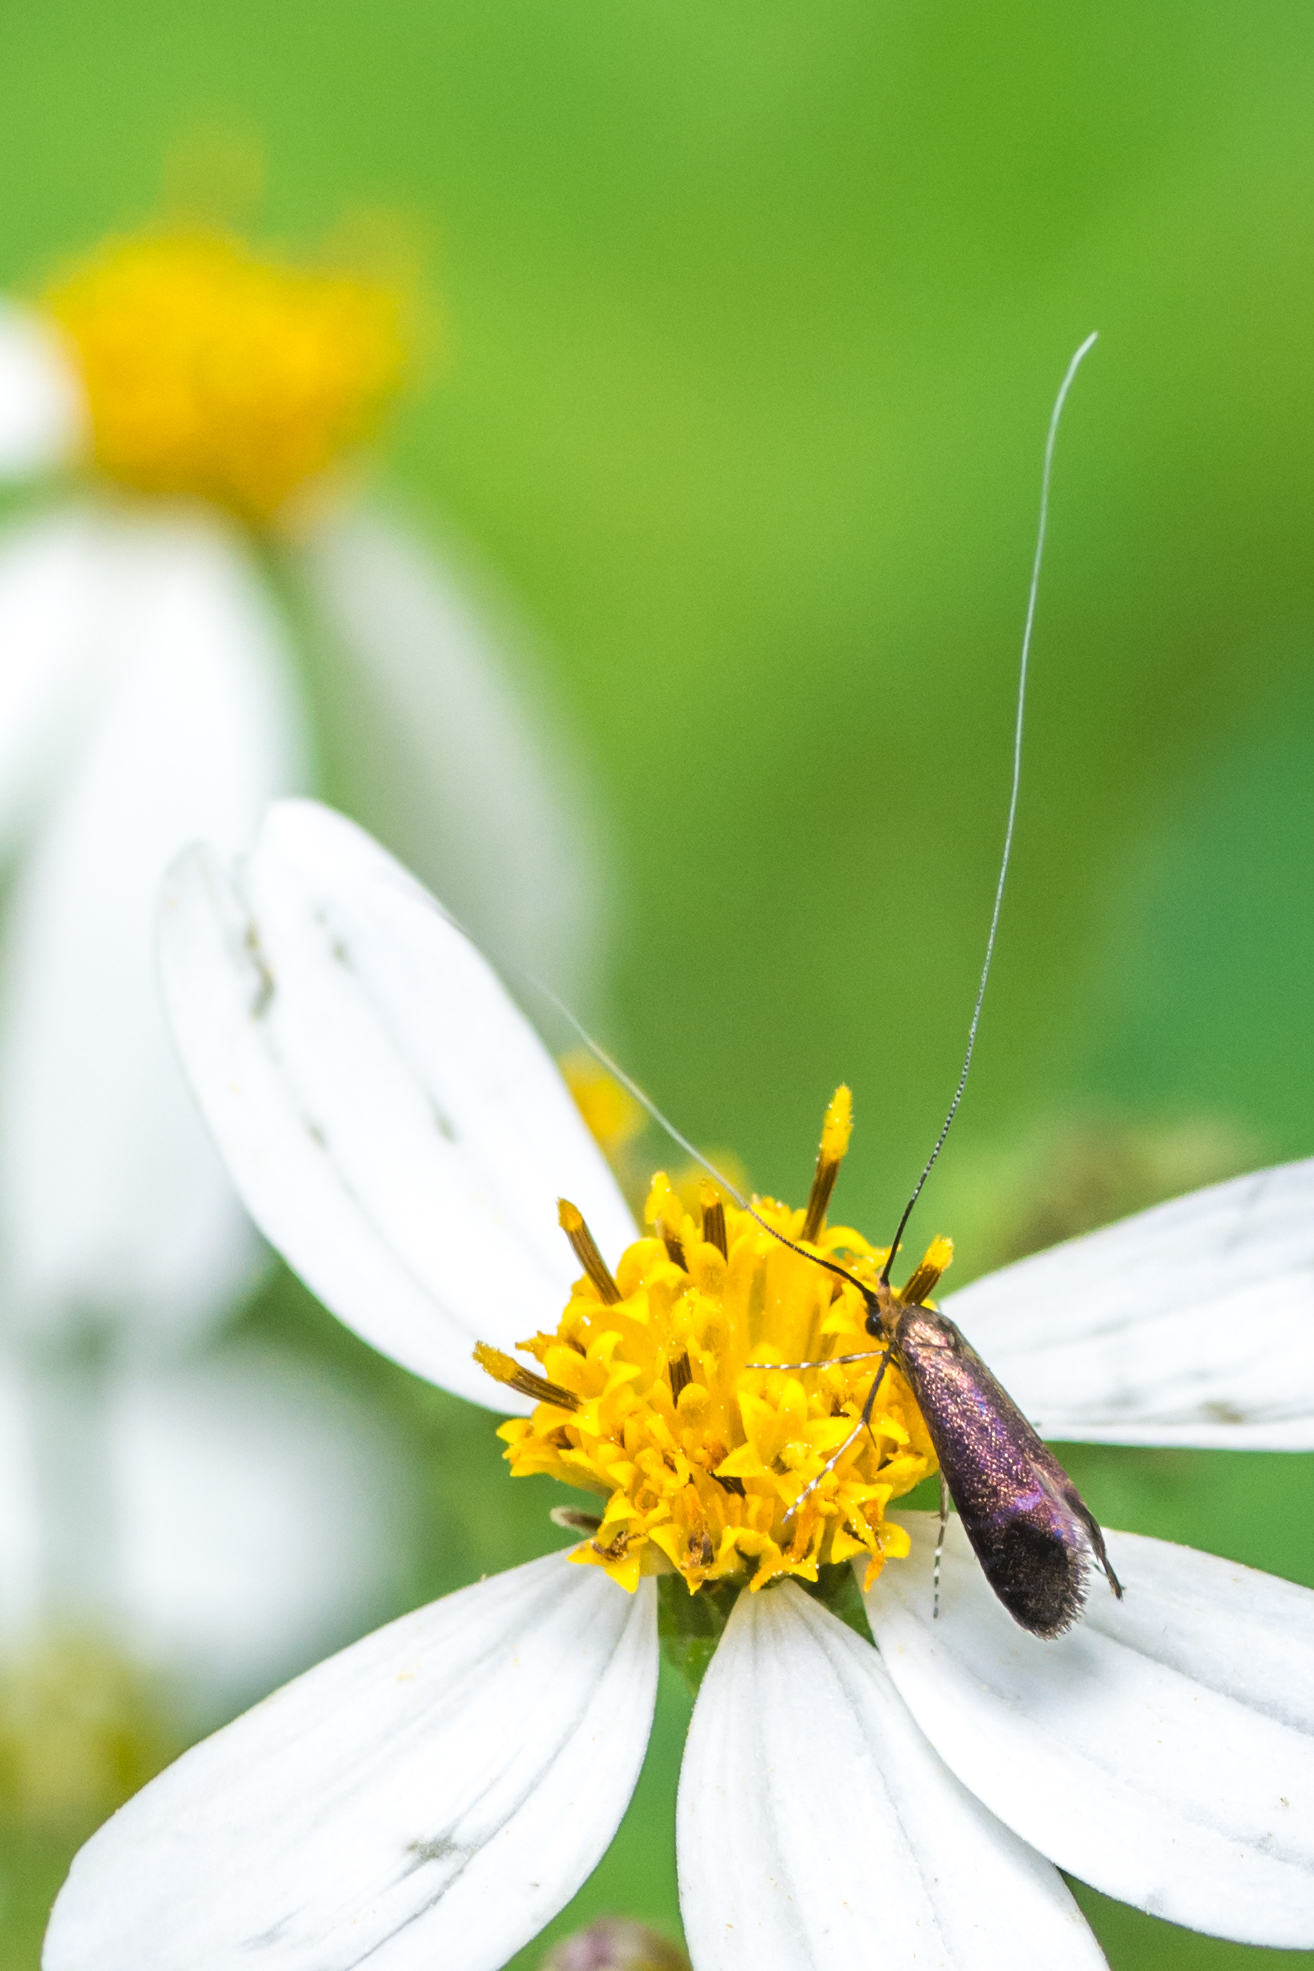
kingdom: Animalia
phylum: Arthropoda
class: Insecta
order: Lepidoptera
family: Adelidae
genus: Adela
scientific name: Adela caeruleella
